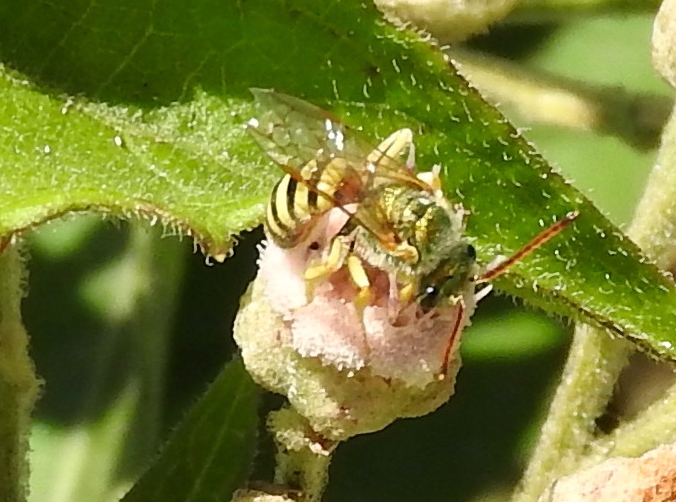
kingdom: Animalia
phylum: Arthropoda
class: Insecta
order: Hymenoptera
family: Halictidae
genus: Agapostemon
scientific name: Agapostemon
